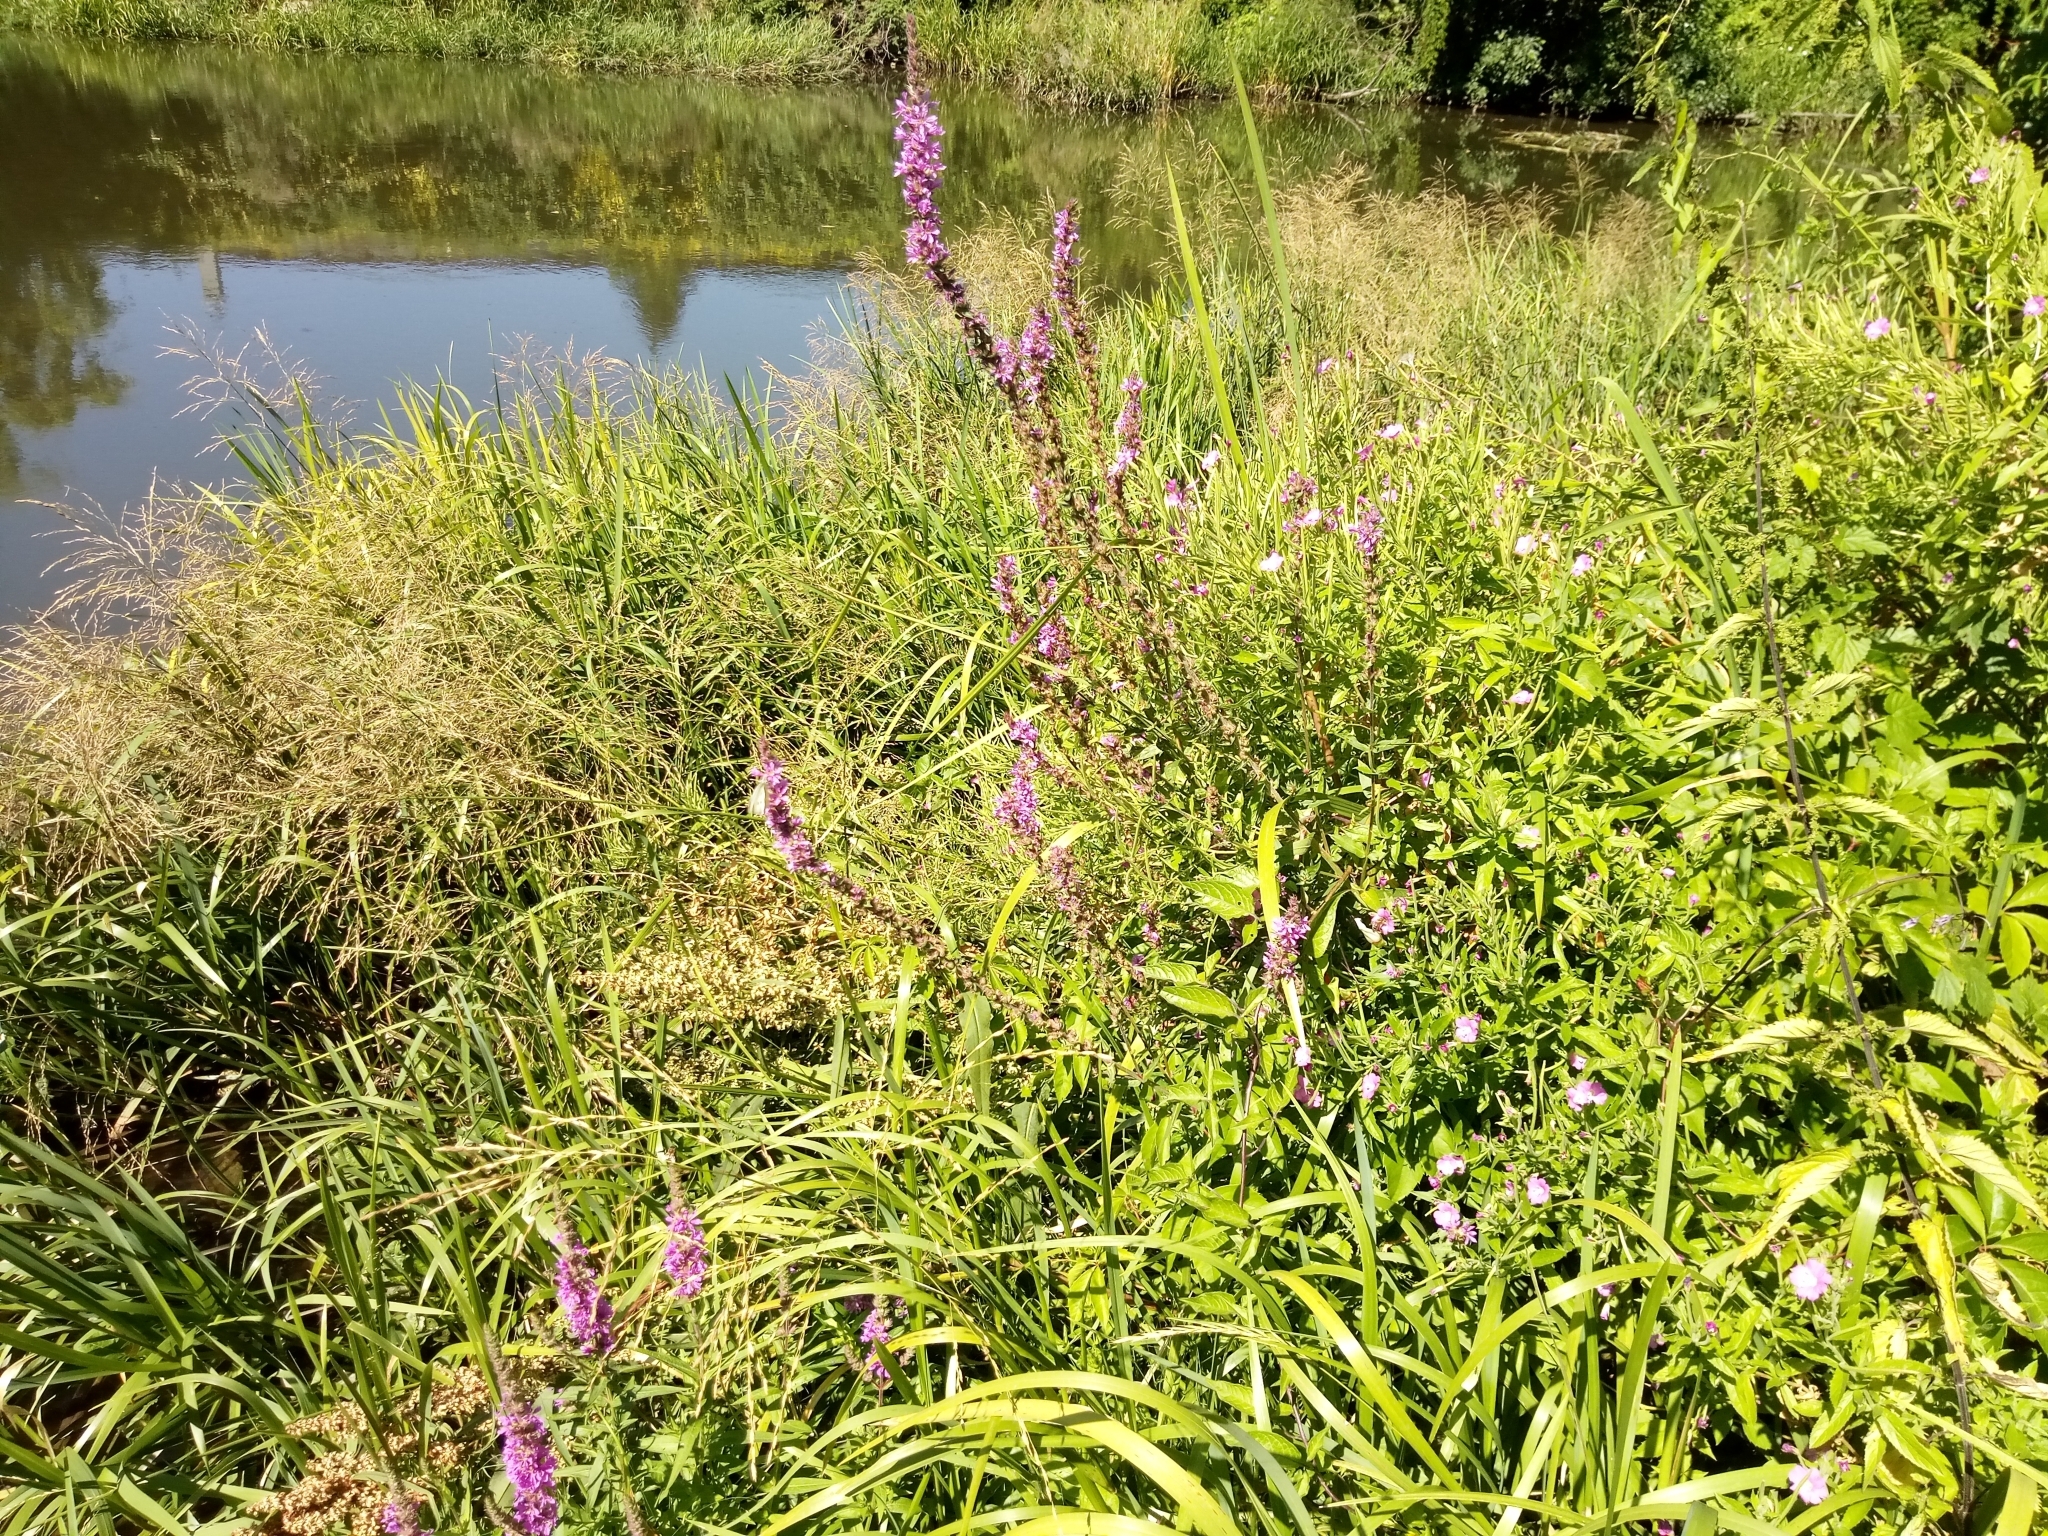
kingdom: Plantae
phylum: Tracheophyta
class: Magnoliopsida
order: Myrtales
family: Lythraceae
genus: Lythrum
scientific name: Lythrum salicaria
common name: Purple loosestrife
